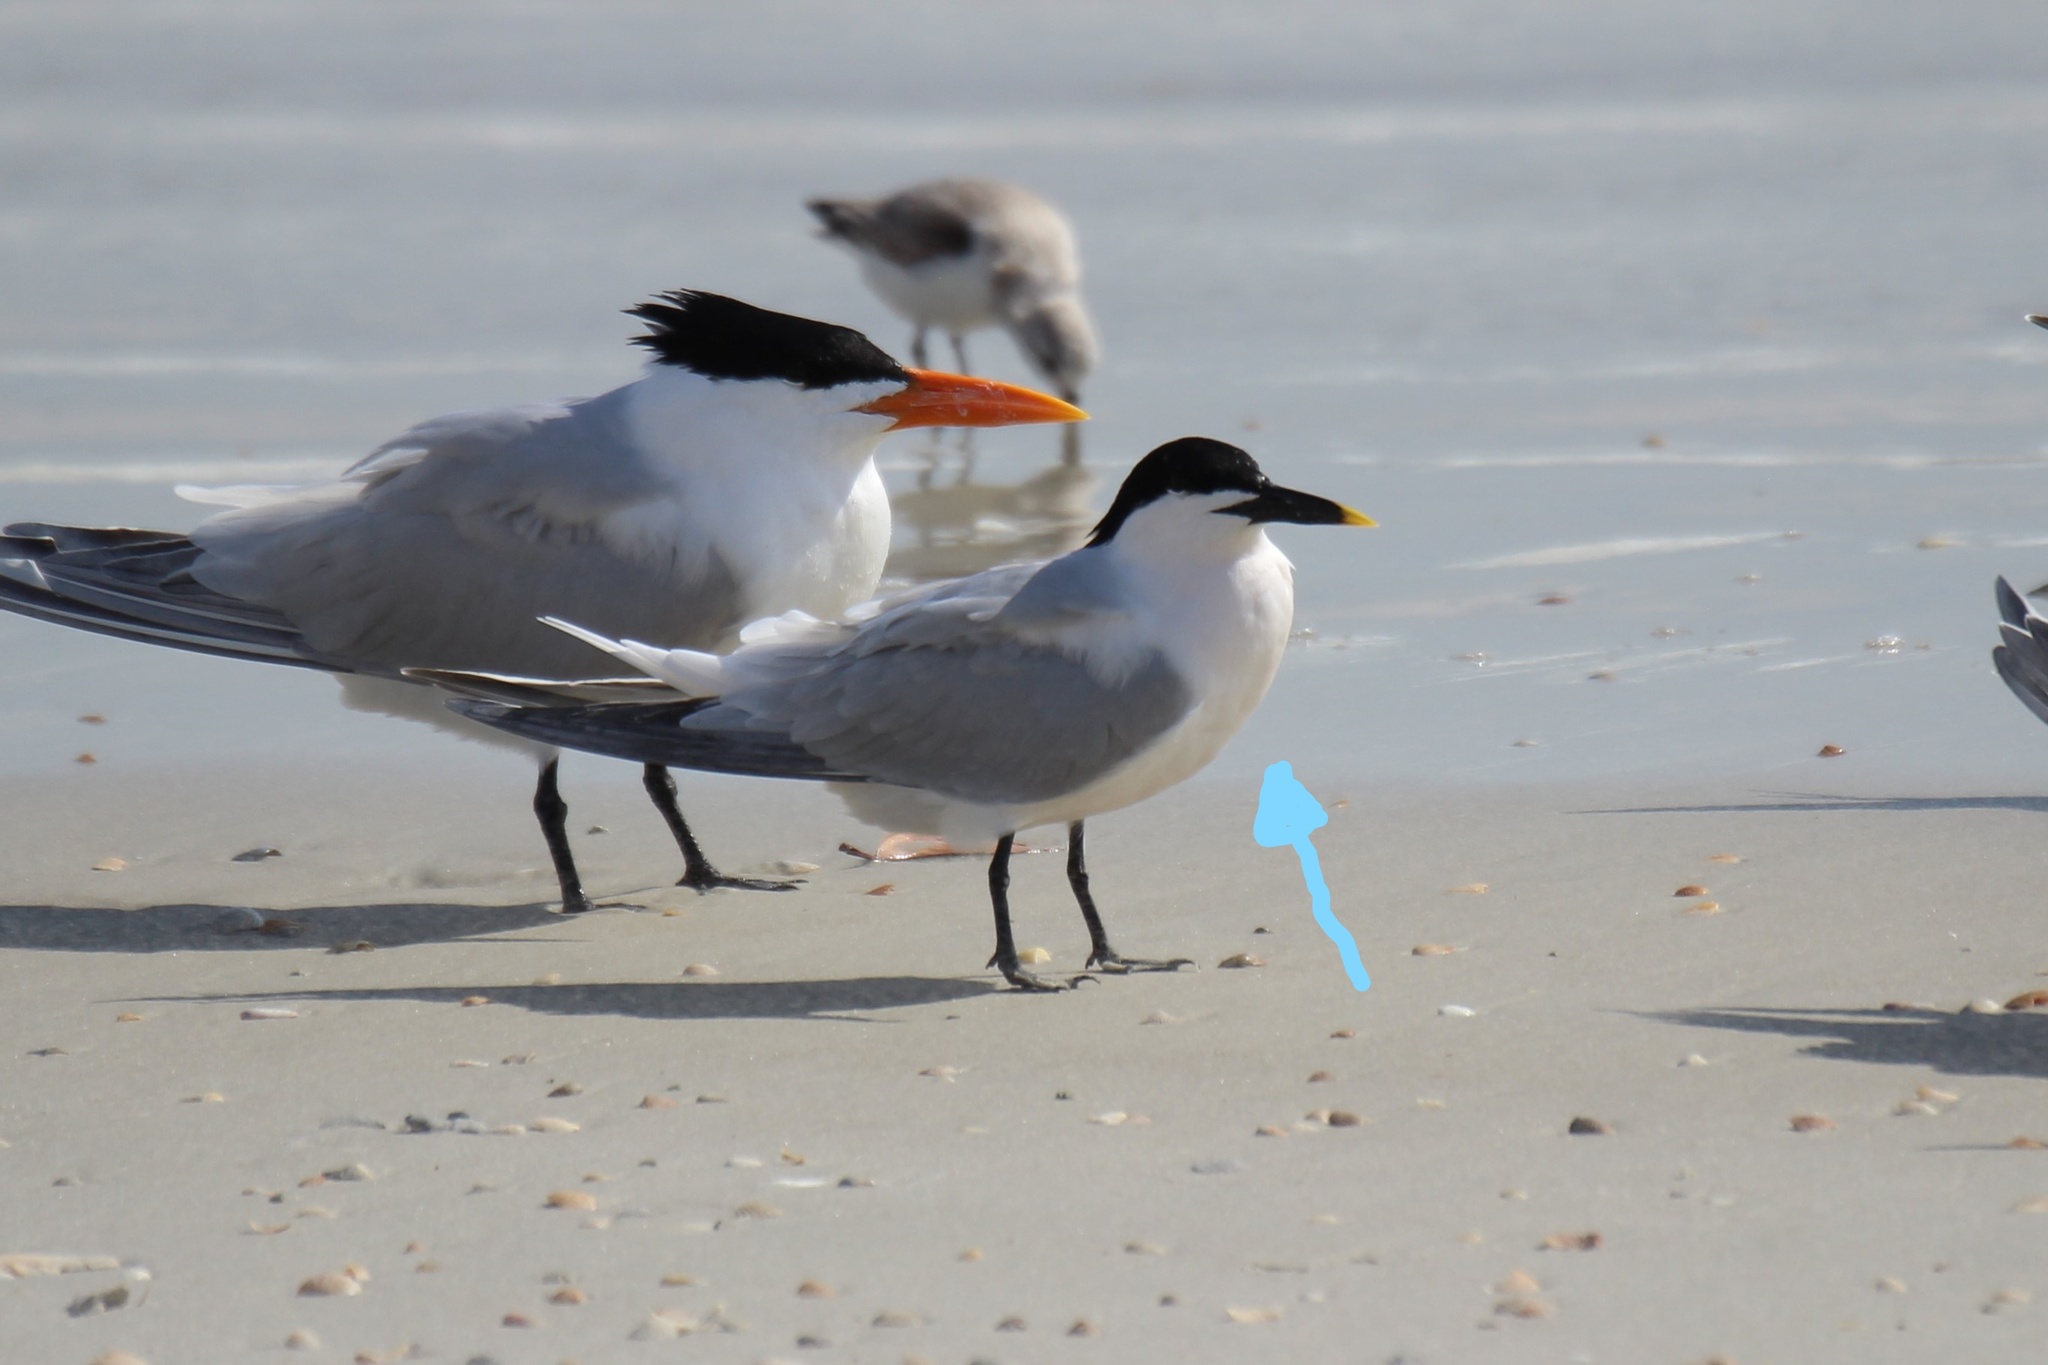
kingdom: Animalia
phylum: Chordata
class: Aves
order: Charadriiformes
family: Laridae
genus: Thalasseus
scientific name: Thalasseus sandvicensis
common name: Sandwich tern
